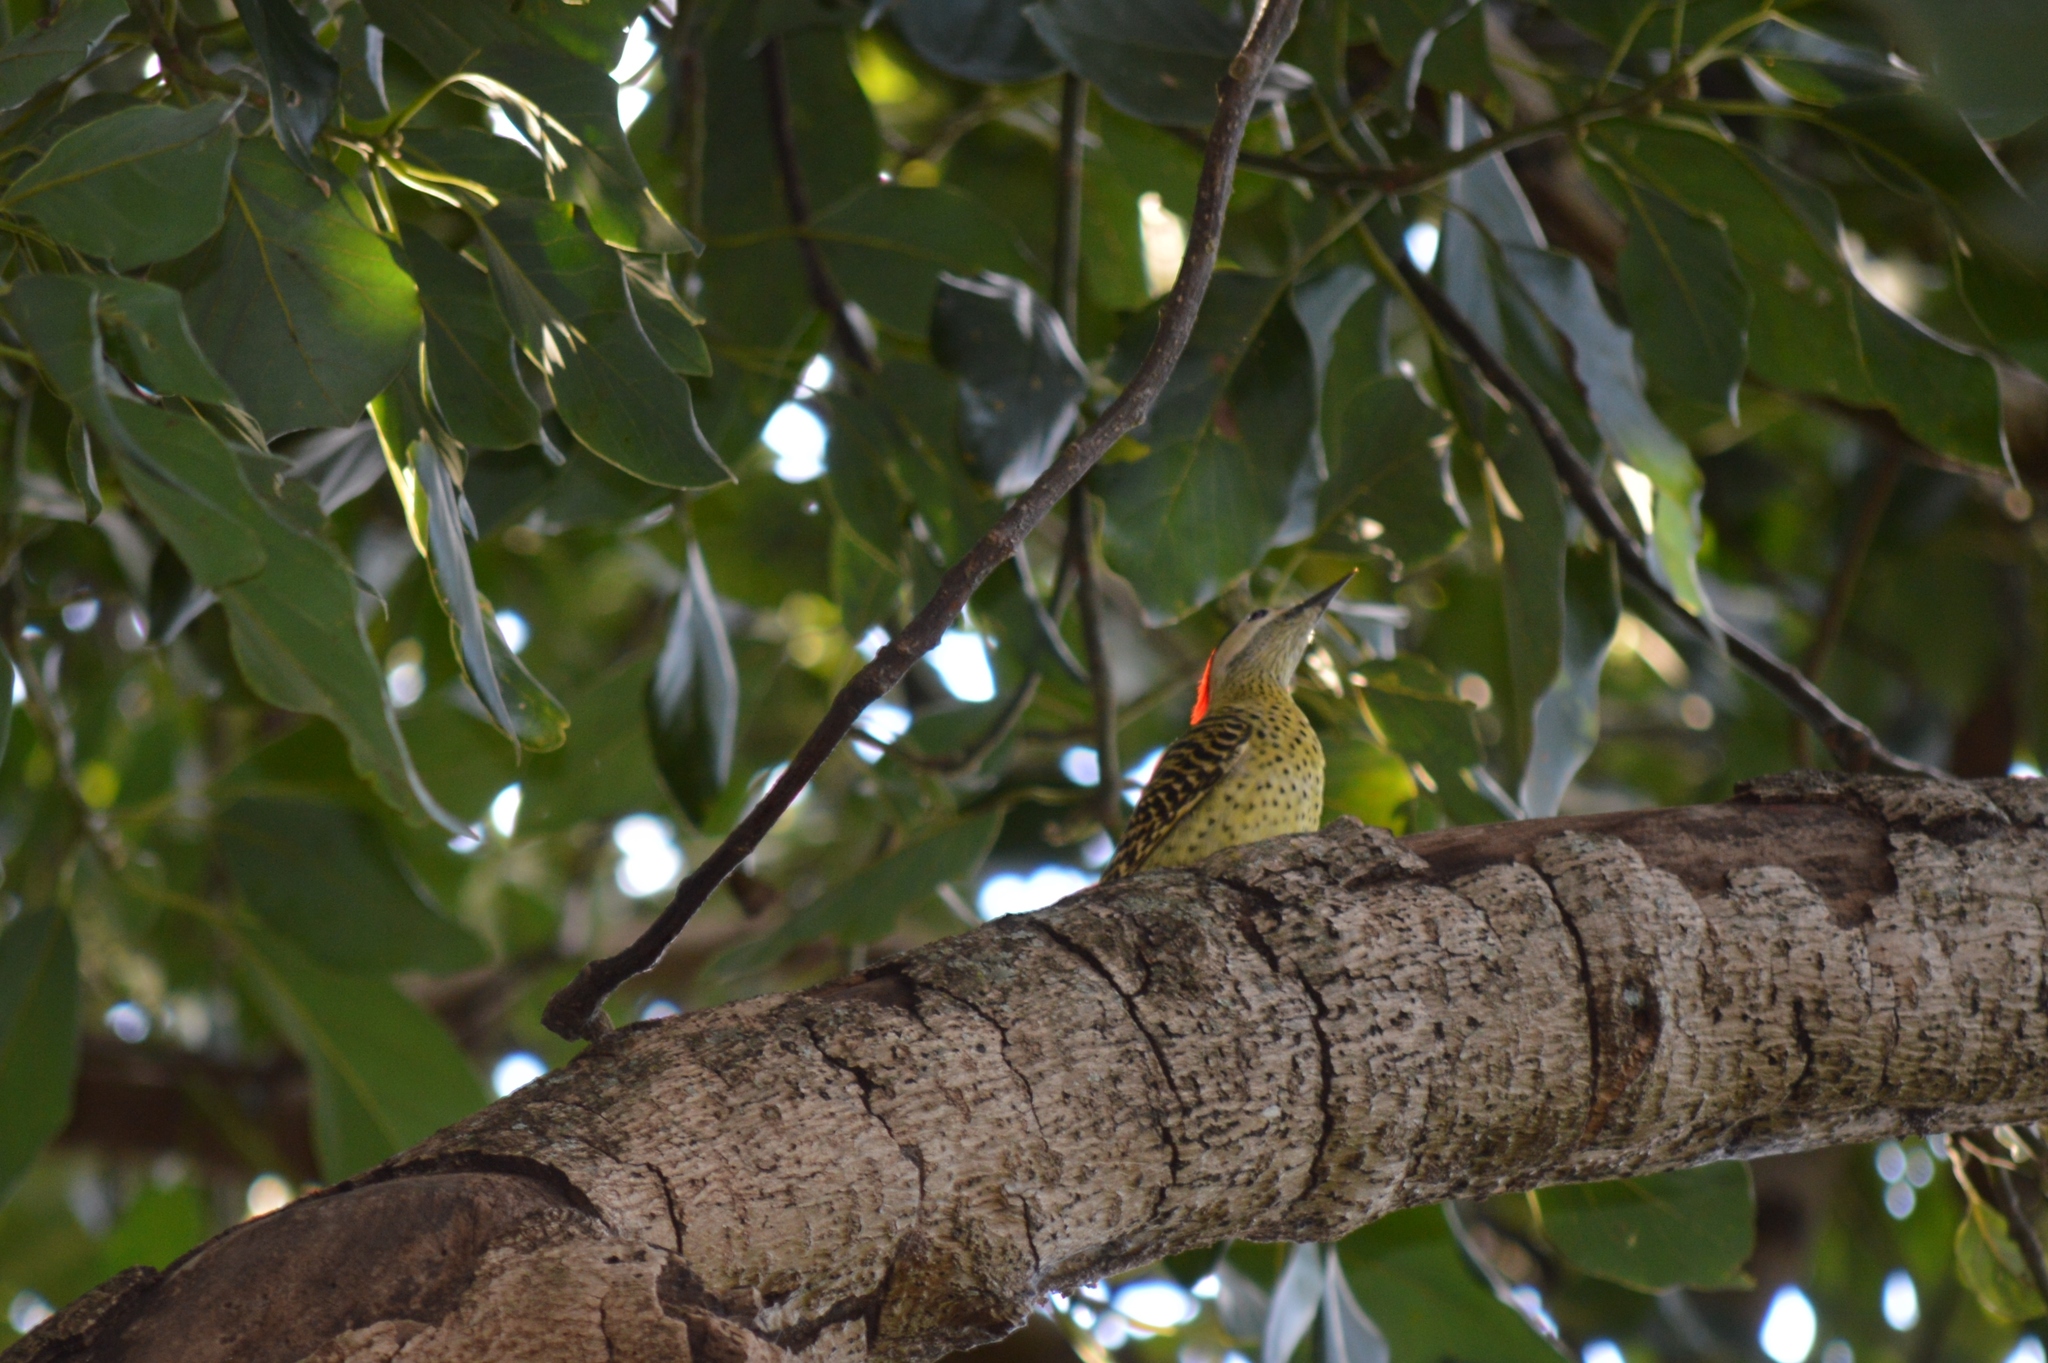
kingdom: Animalia
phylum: Chordata
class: Aves
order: Piciformes
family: Picidae
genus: Colaptes
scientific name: Colaptes melanochloros
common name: Green-barred woodpecker
